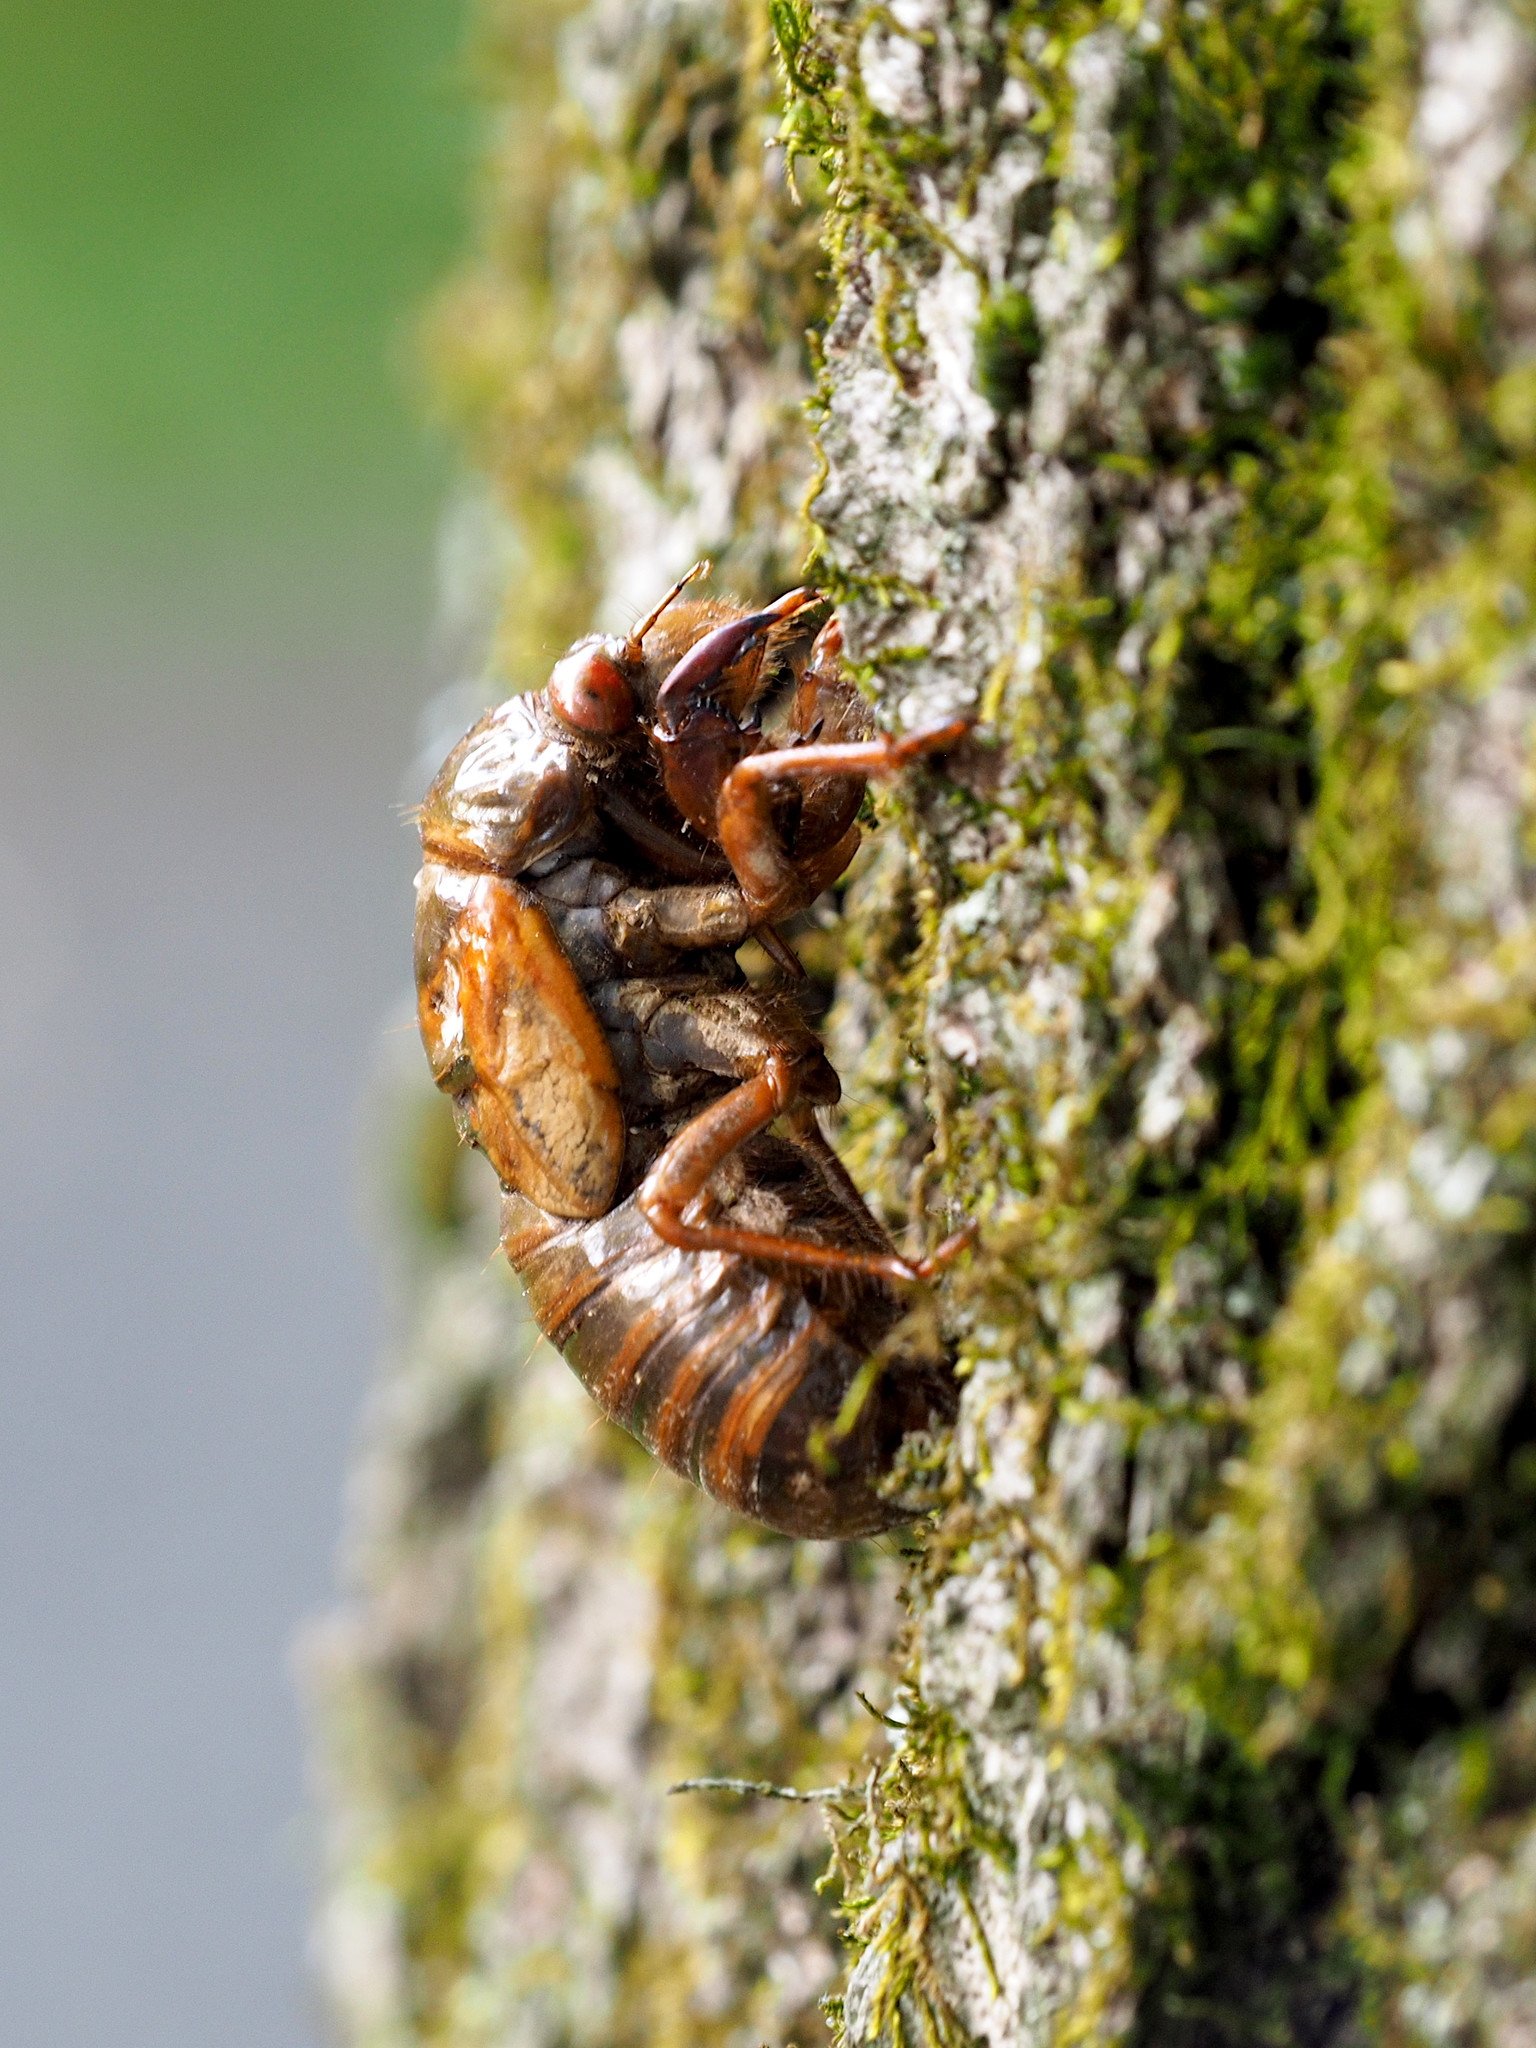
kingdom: Animalia
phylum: Arthropoda
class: Insecta
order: Hemiptera
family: Cicadidae
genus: Magicicada
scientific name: Magicicada
